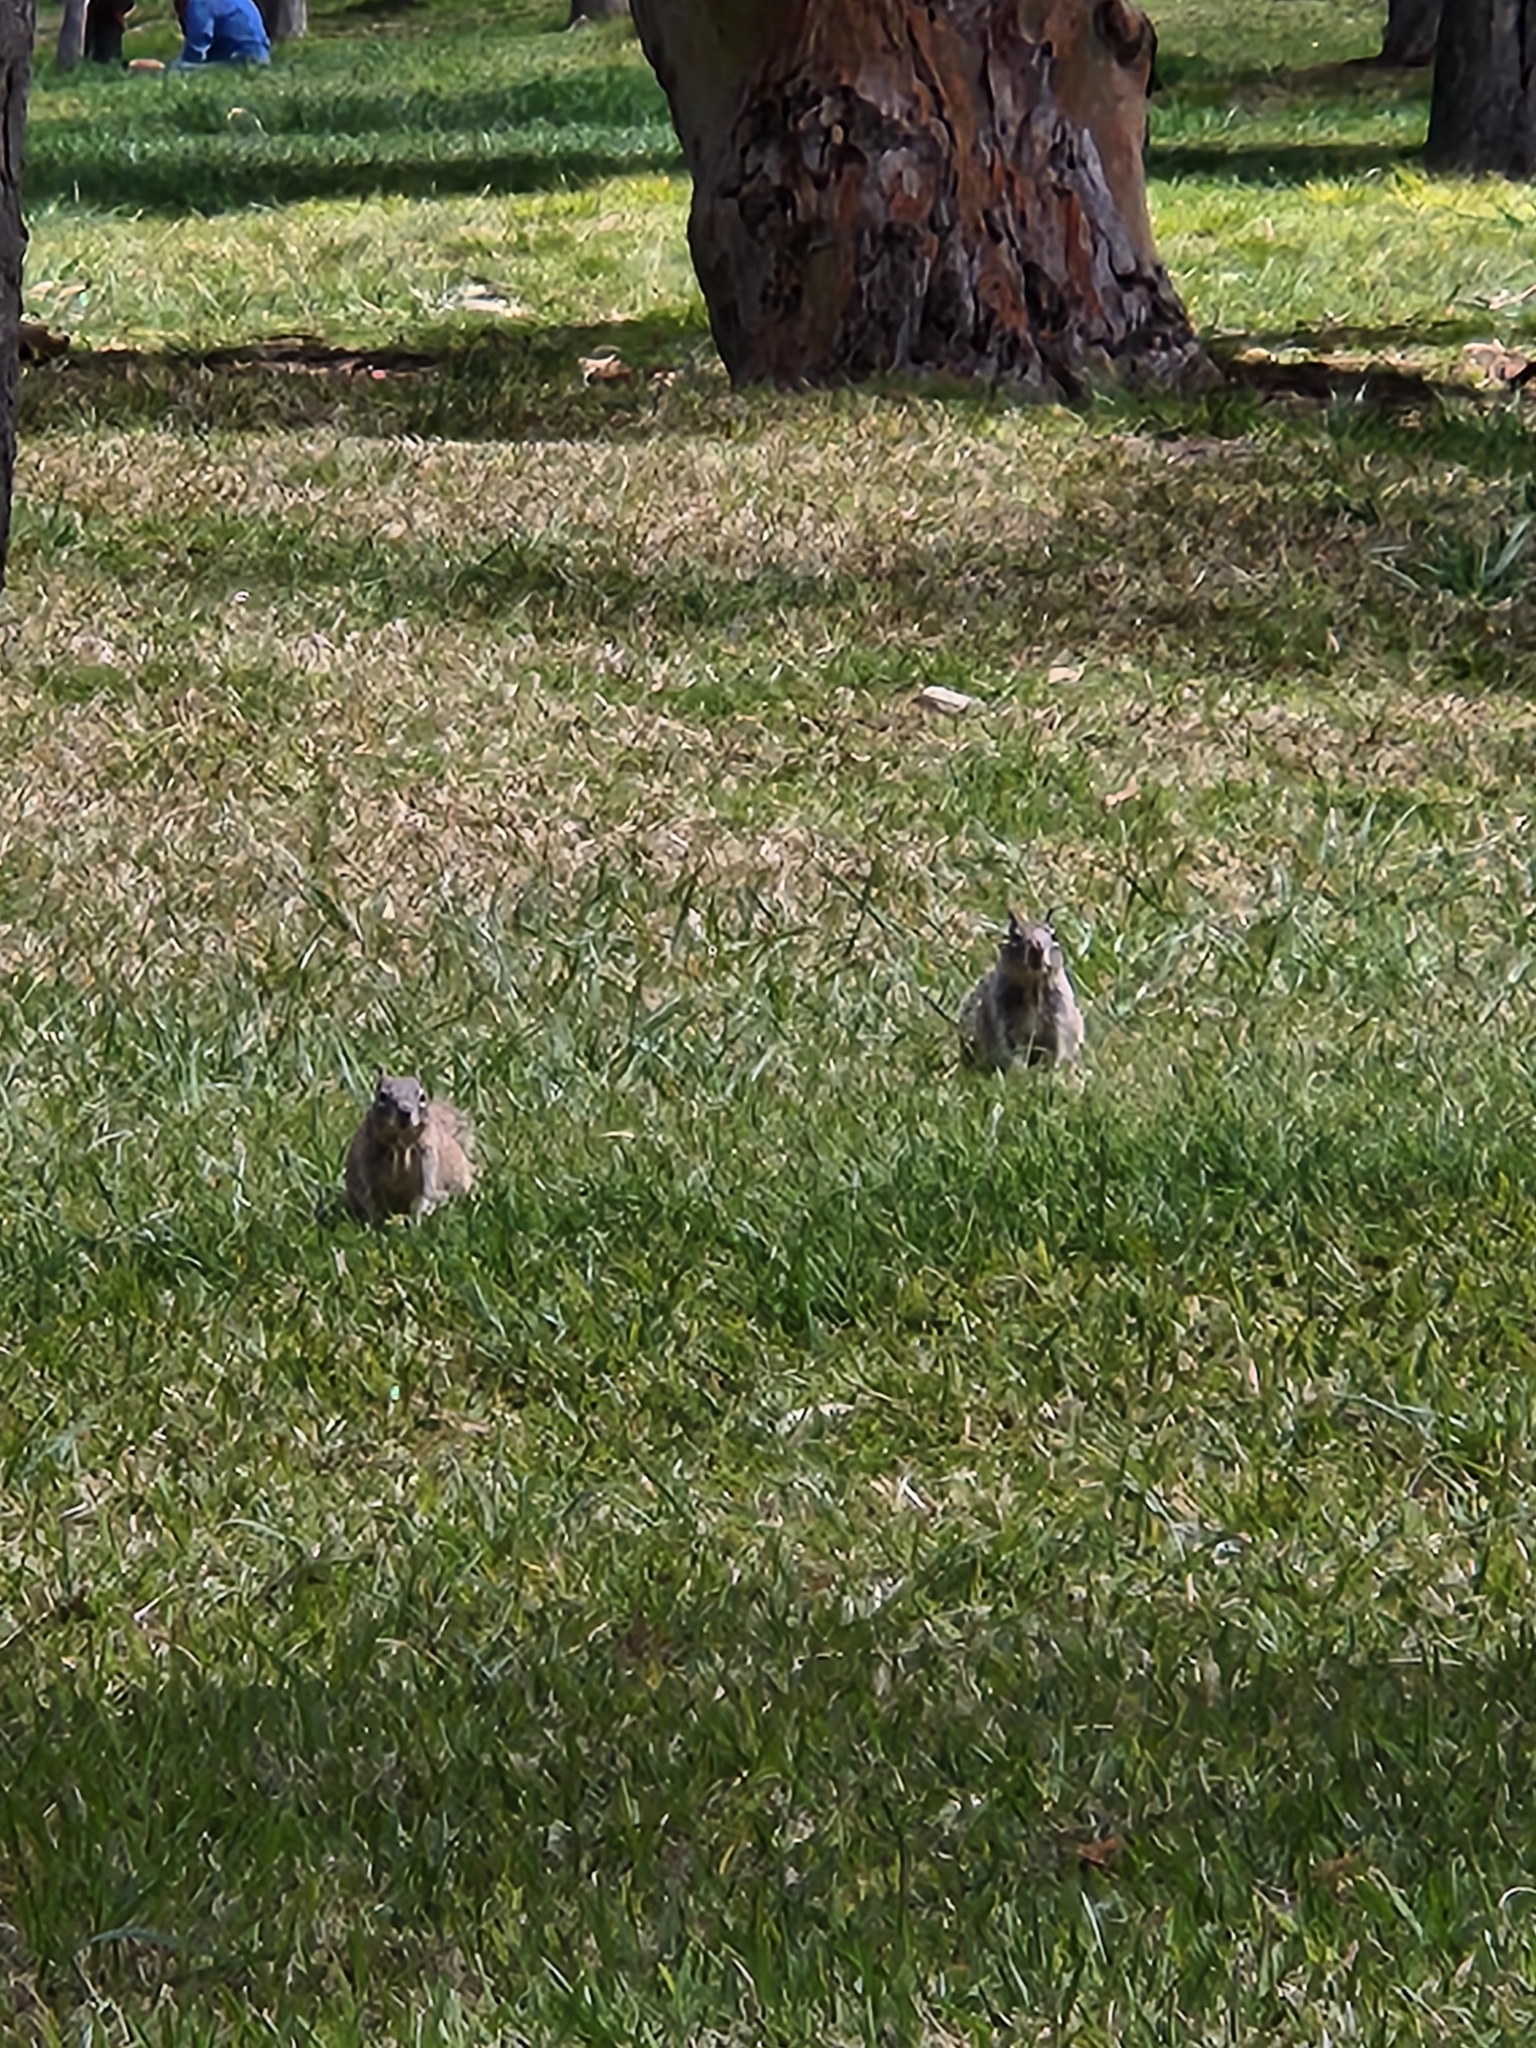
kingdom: Animalia
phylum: Chordata
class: Mammalia
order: Rodentia
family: Sciuridae
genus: Otospermophilus
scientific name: Otospermophilus beecheyi
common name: California ground squirrel
